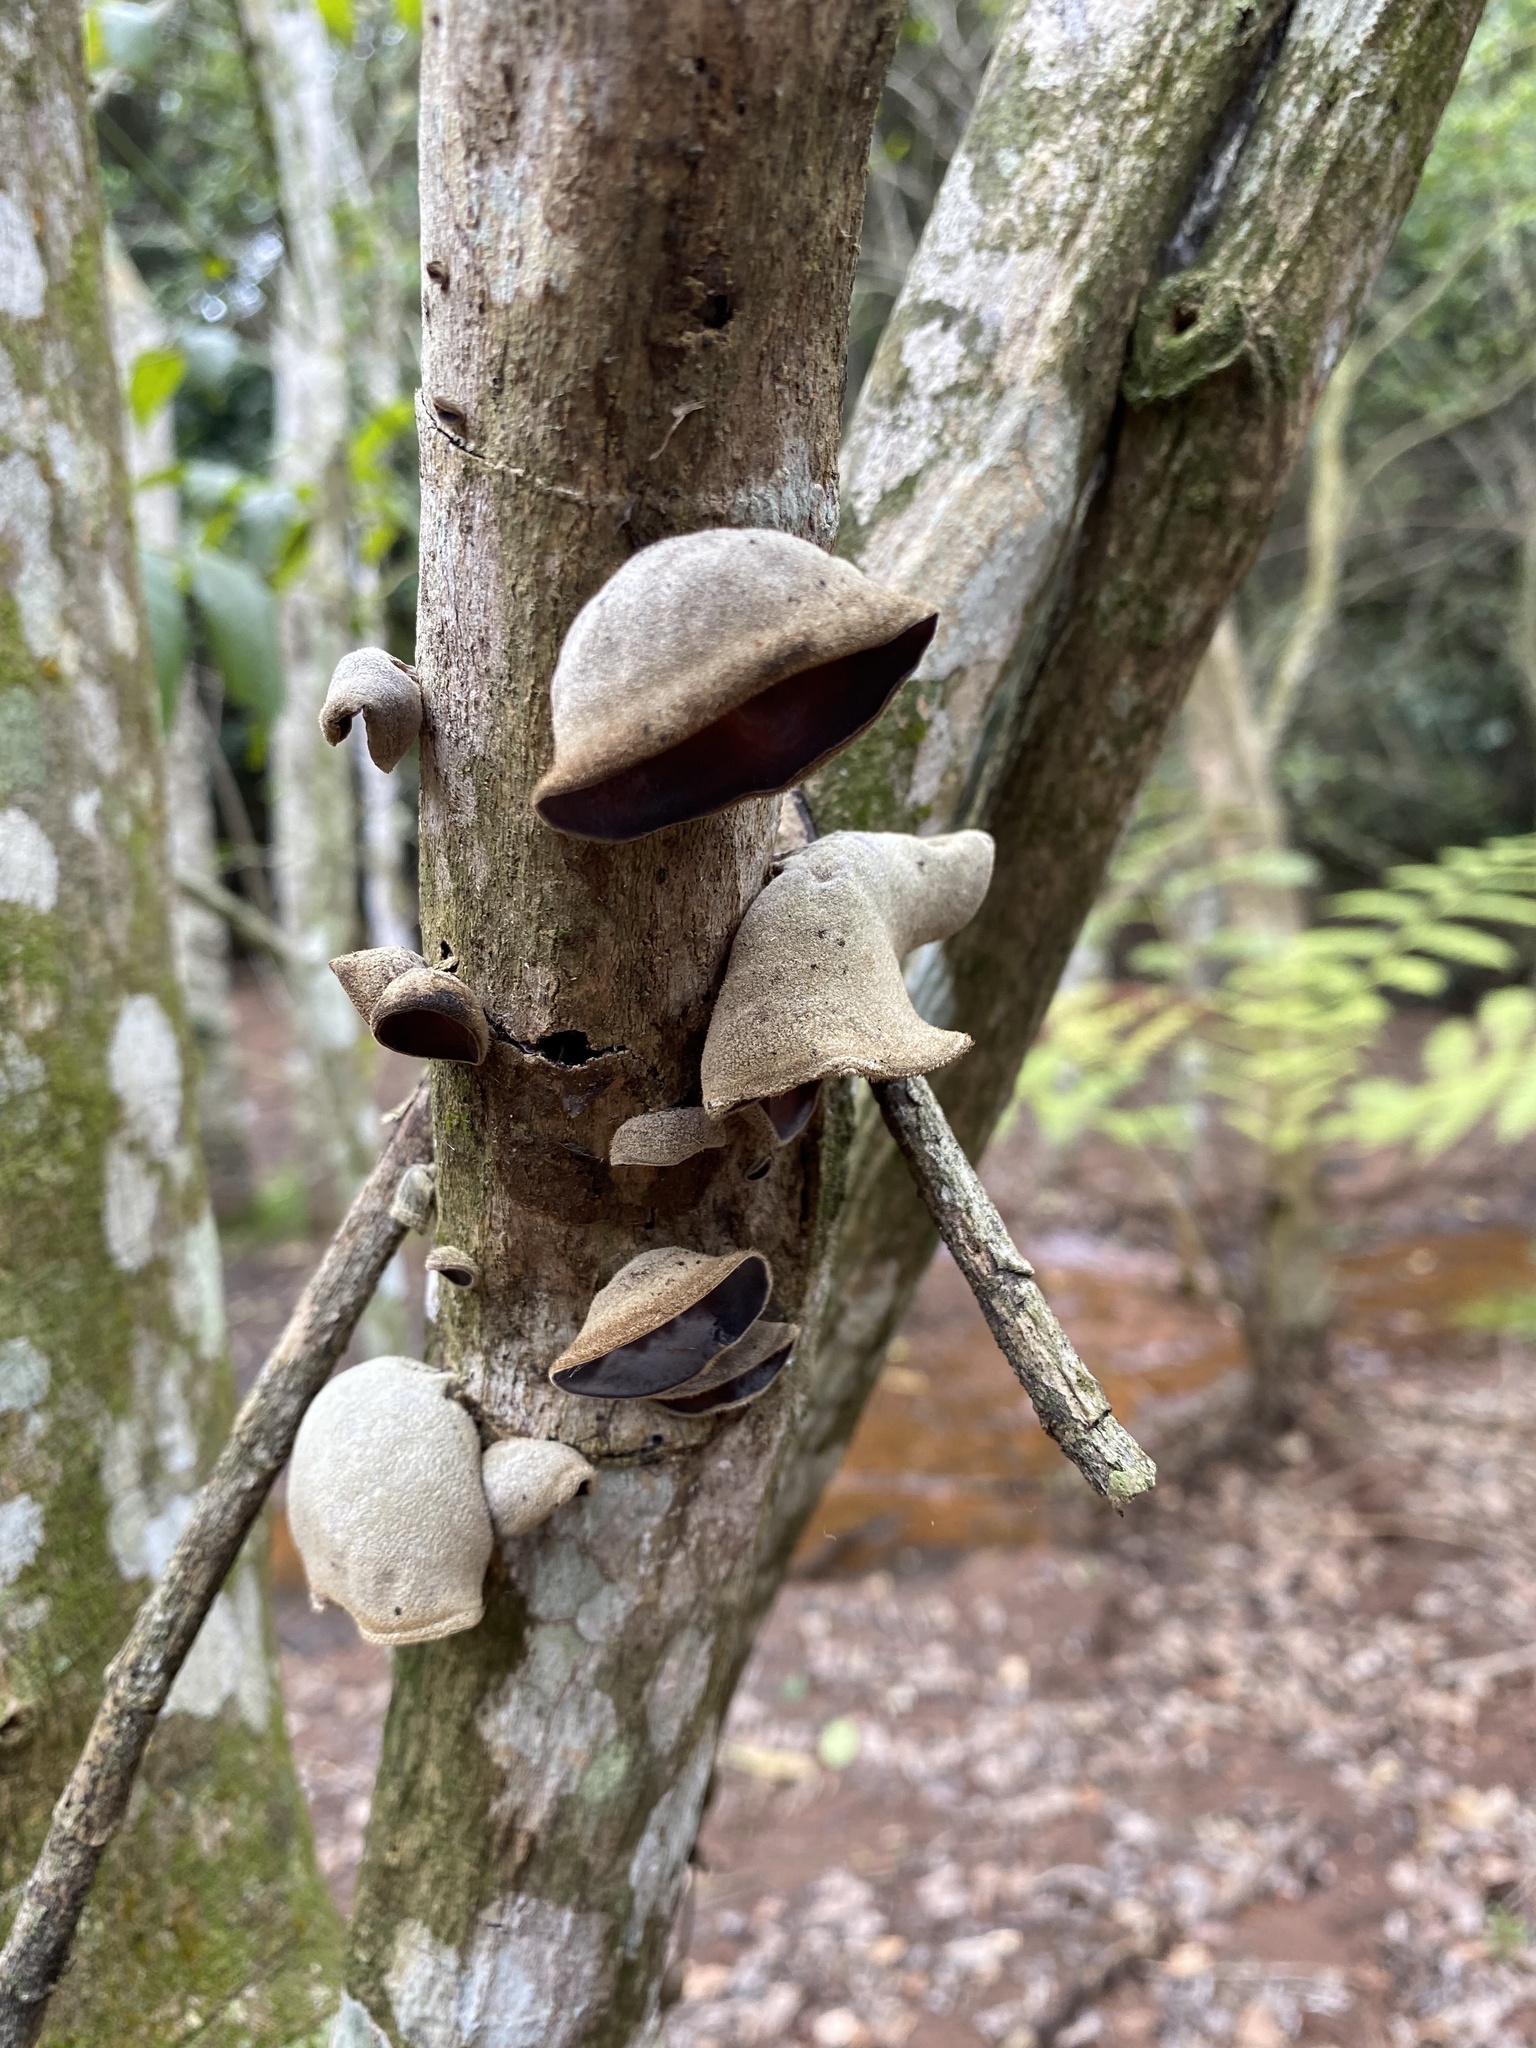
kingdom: Fungi
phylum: Basidiomycota
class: Agaricomycetes
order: Auriculariales
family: Auriculariaceae
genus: Auricularia
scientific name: Auricularia cornea
